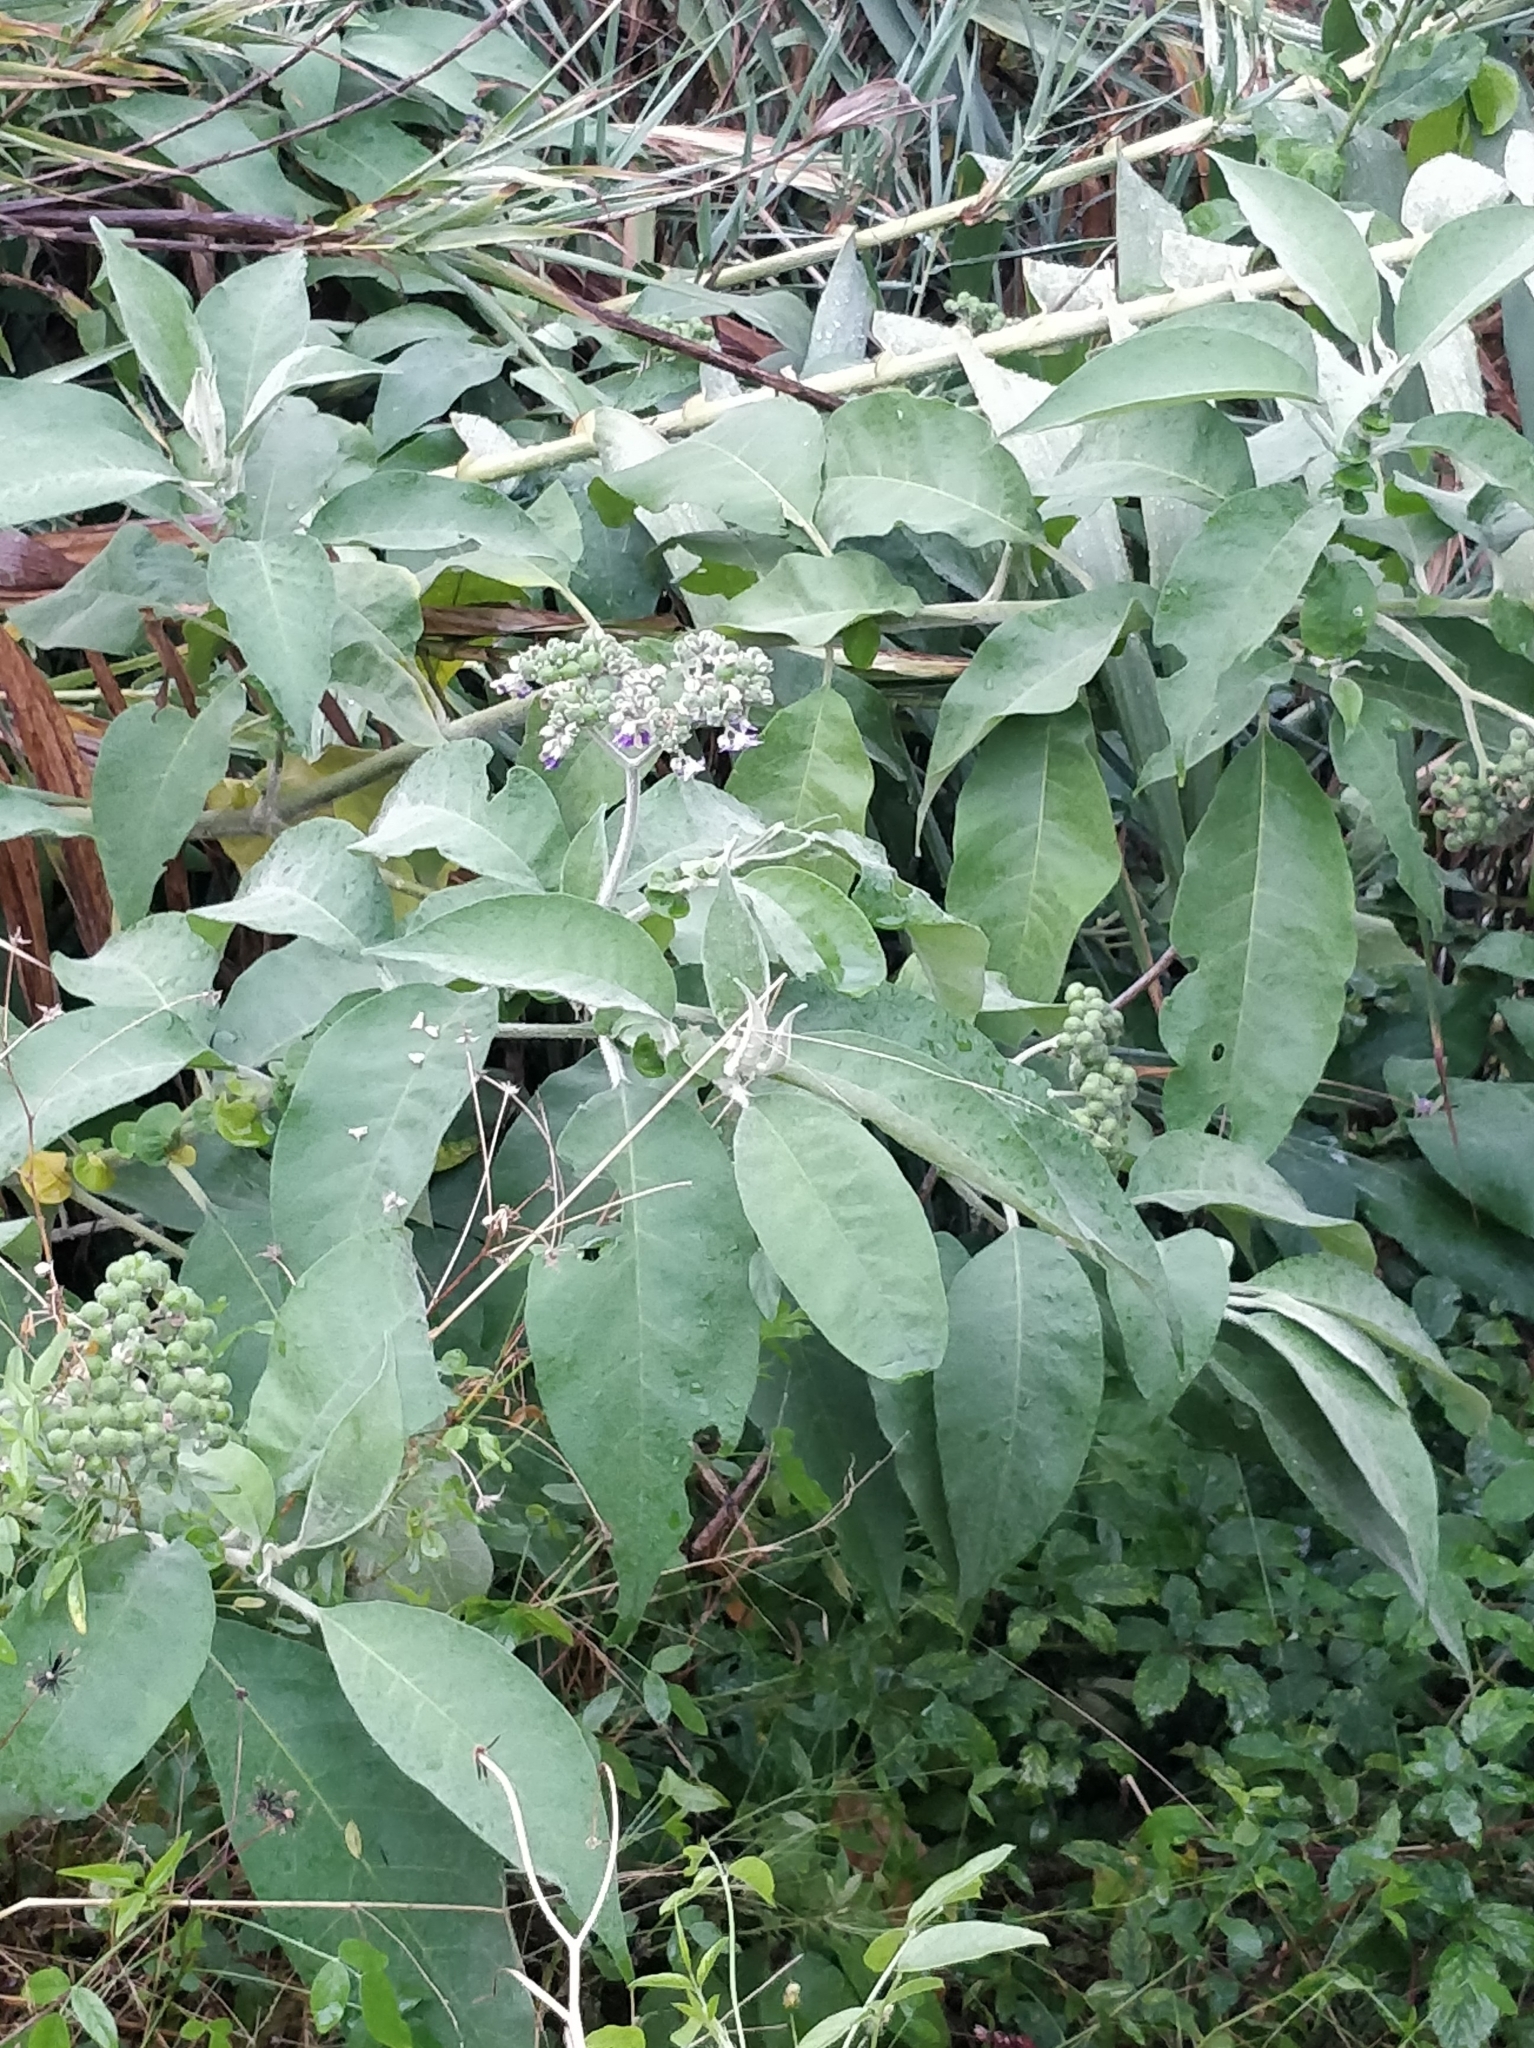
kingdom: Plantae
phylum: Tracheophyta
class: Magnoliopsida
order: Solanales
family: Solanaceae
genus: Solanum
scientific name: Solanum mauritianum
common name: Earleaf nightshade
